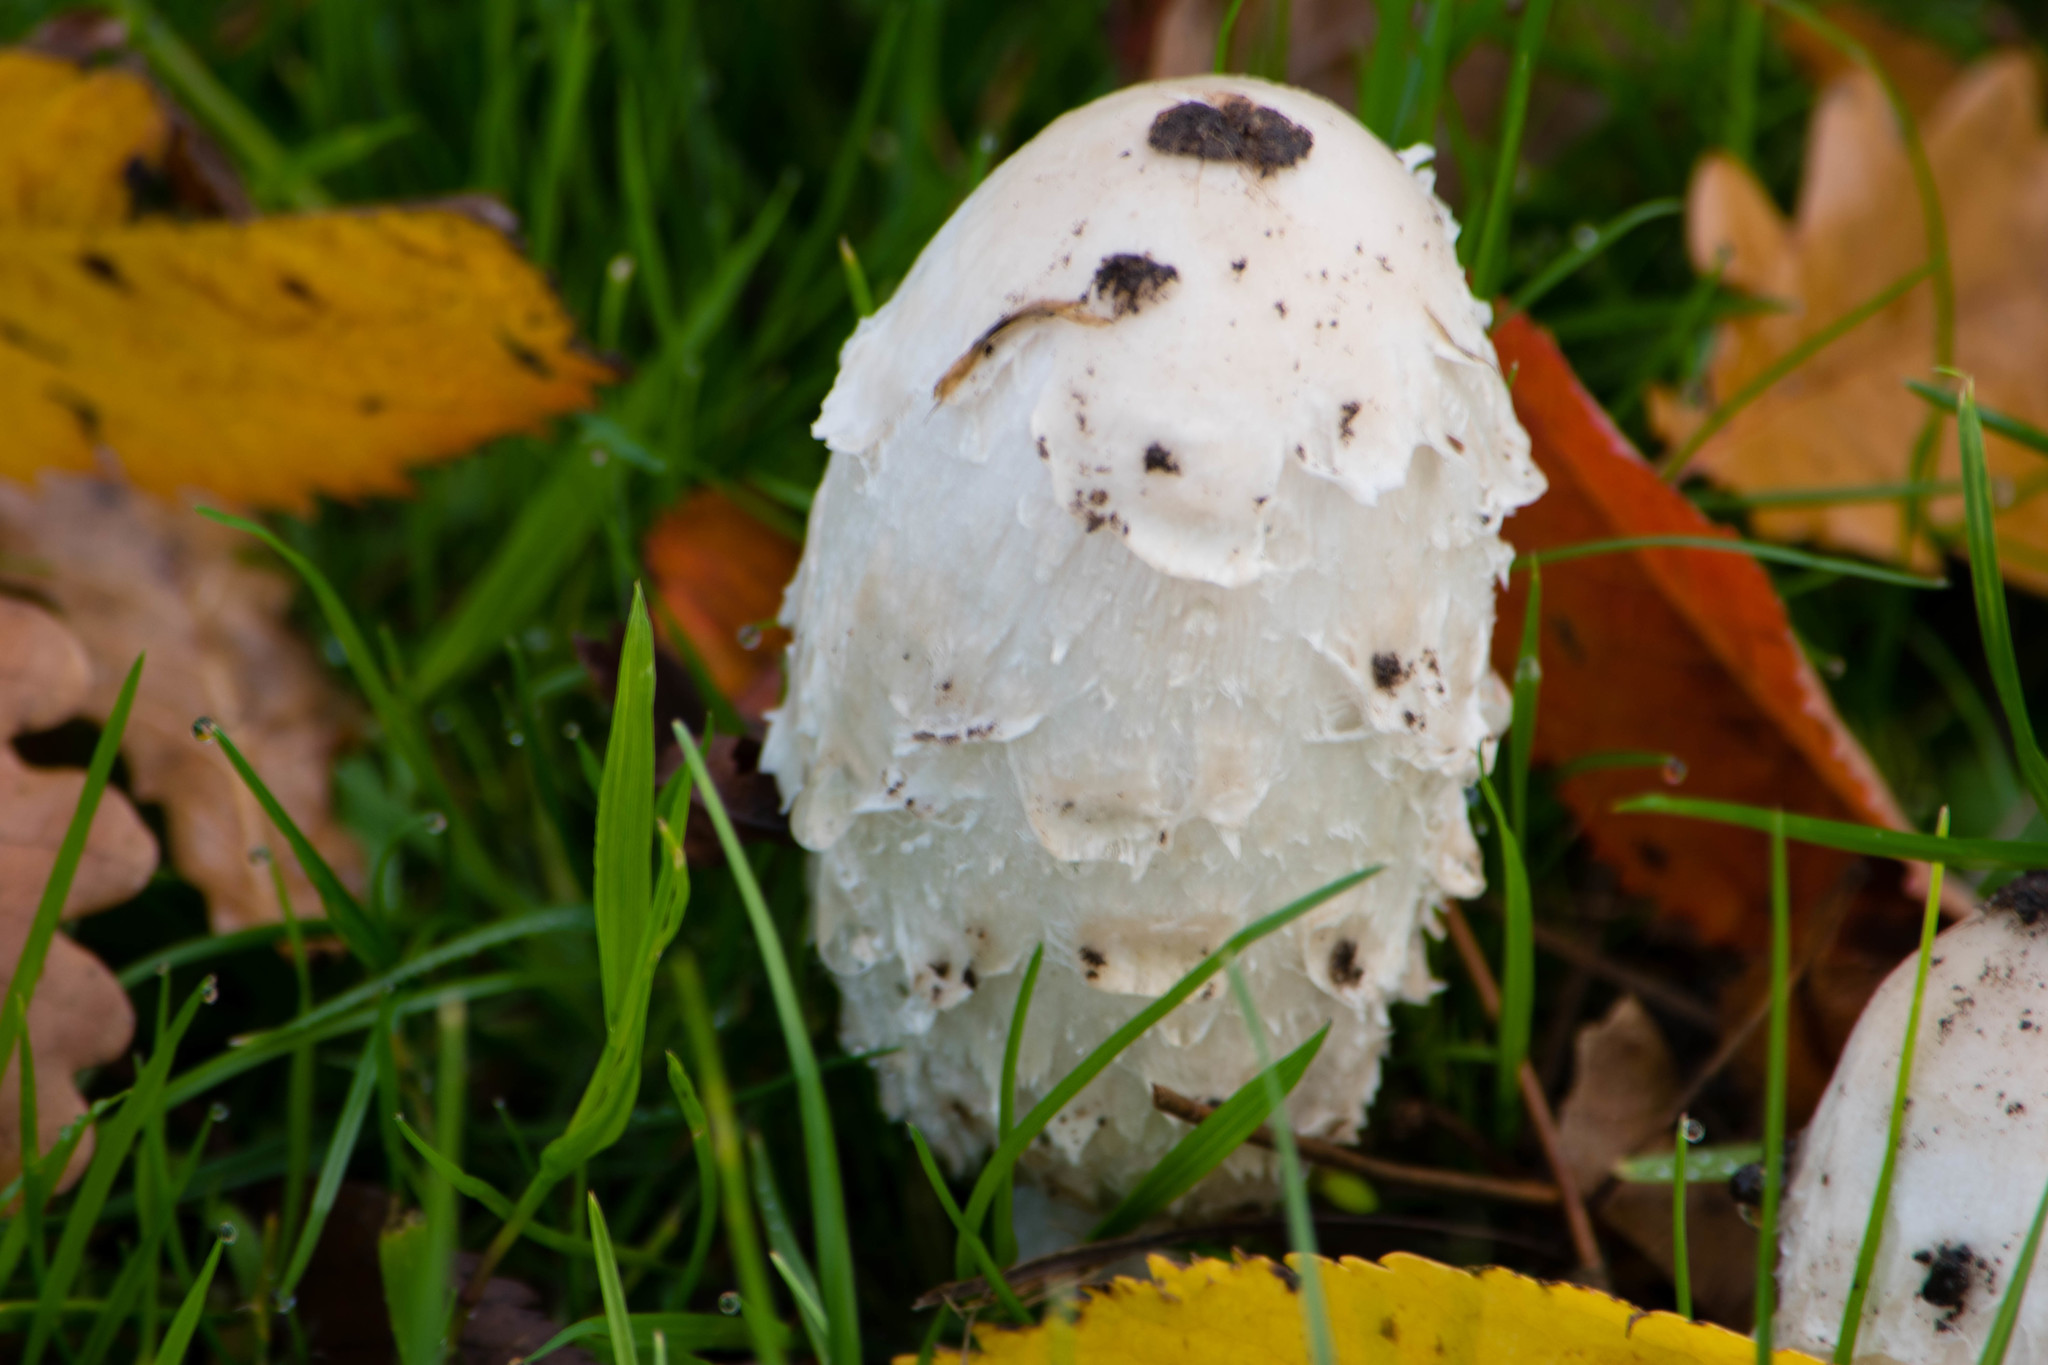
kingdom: Fungi
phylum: Basidiomycota
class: Agaricomycetes
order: Agaricales
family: Agaricaceae
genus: Coprinus
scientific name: Coprinus comatus
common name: Lawyer's wig
